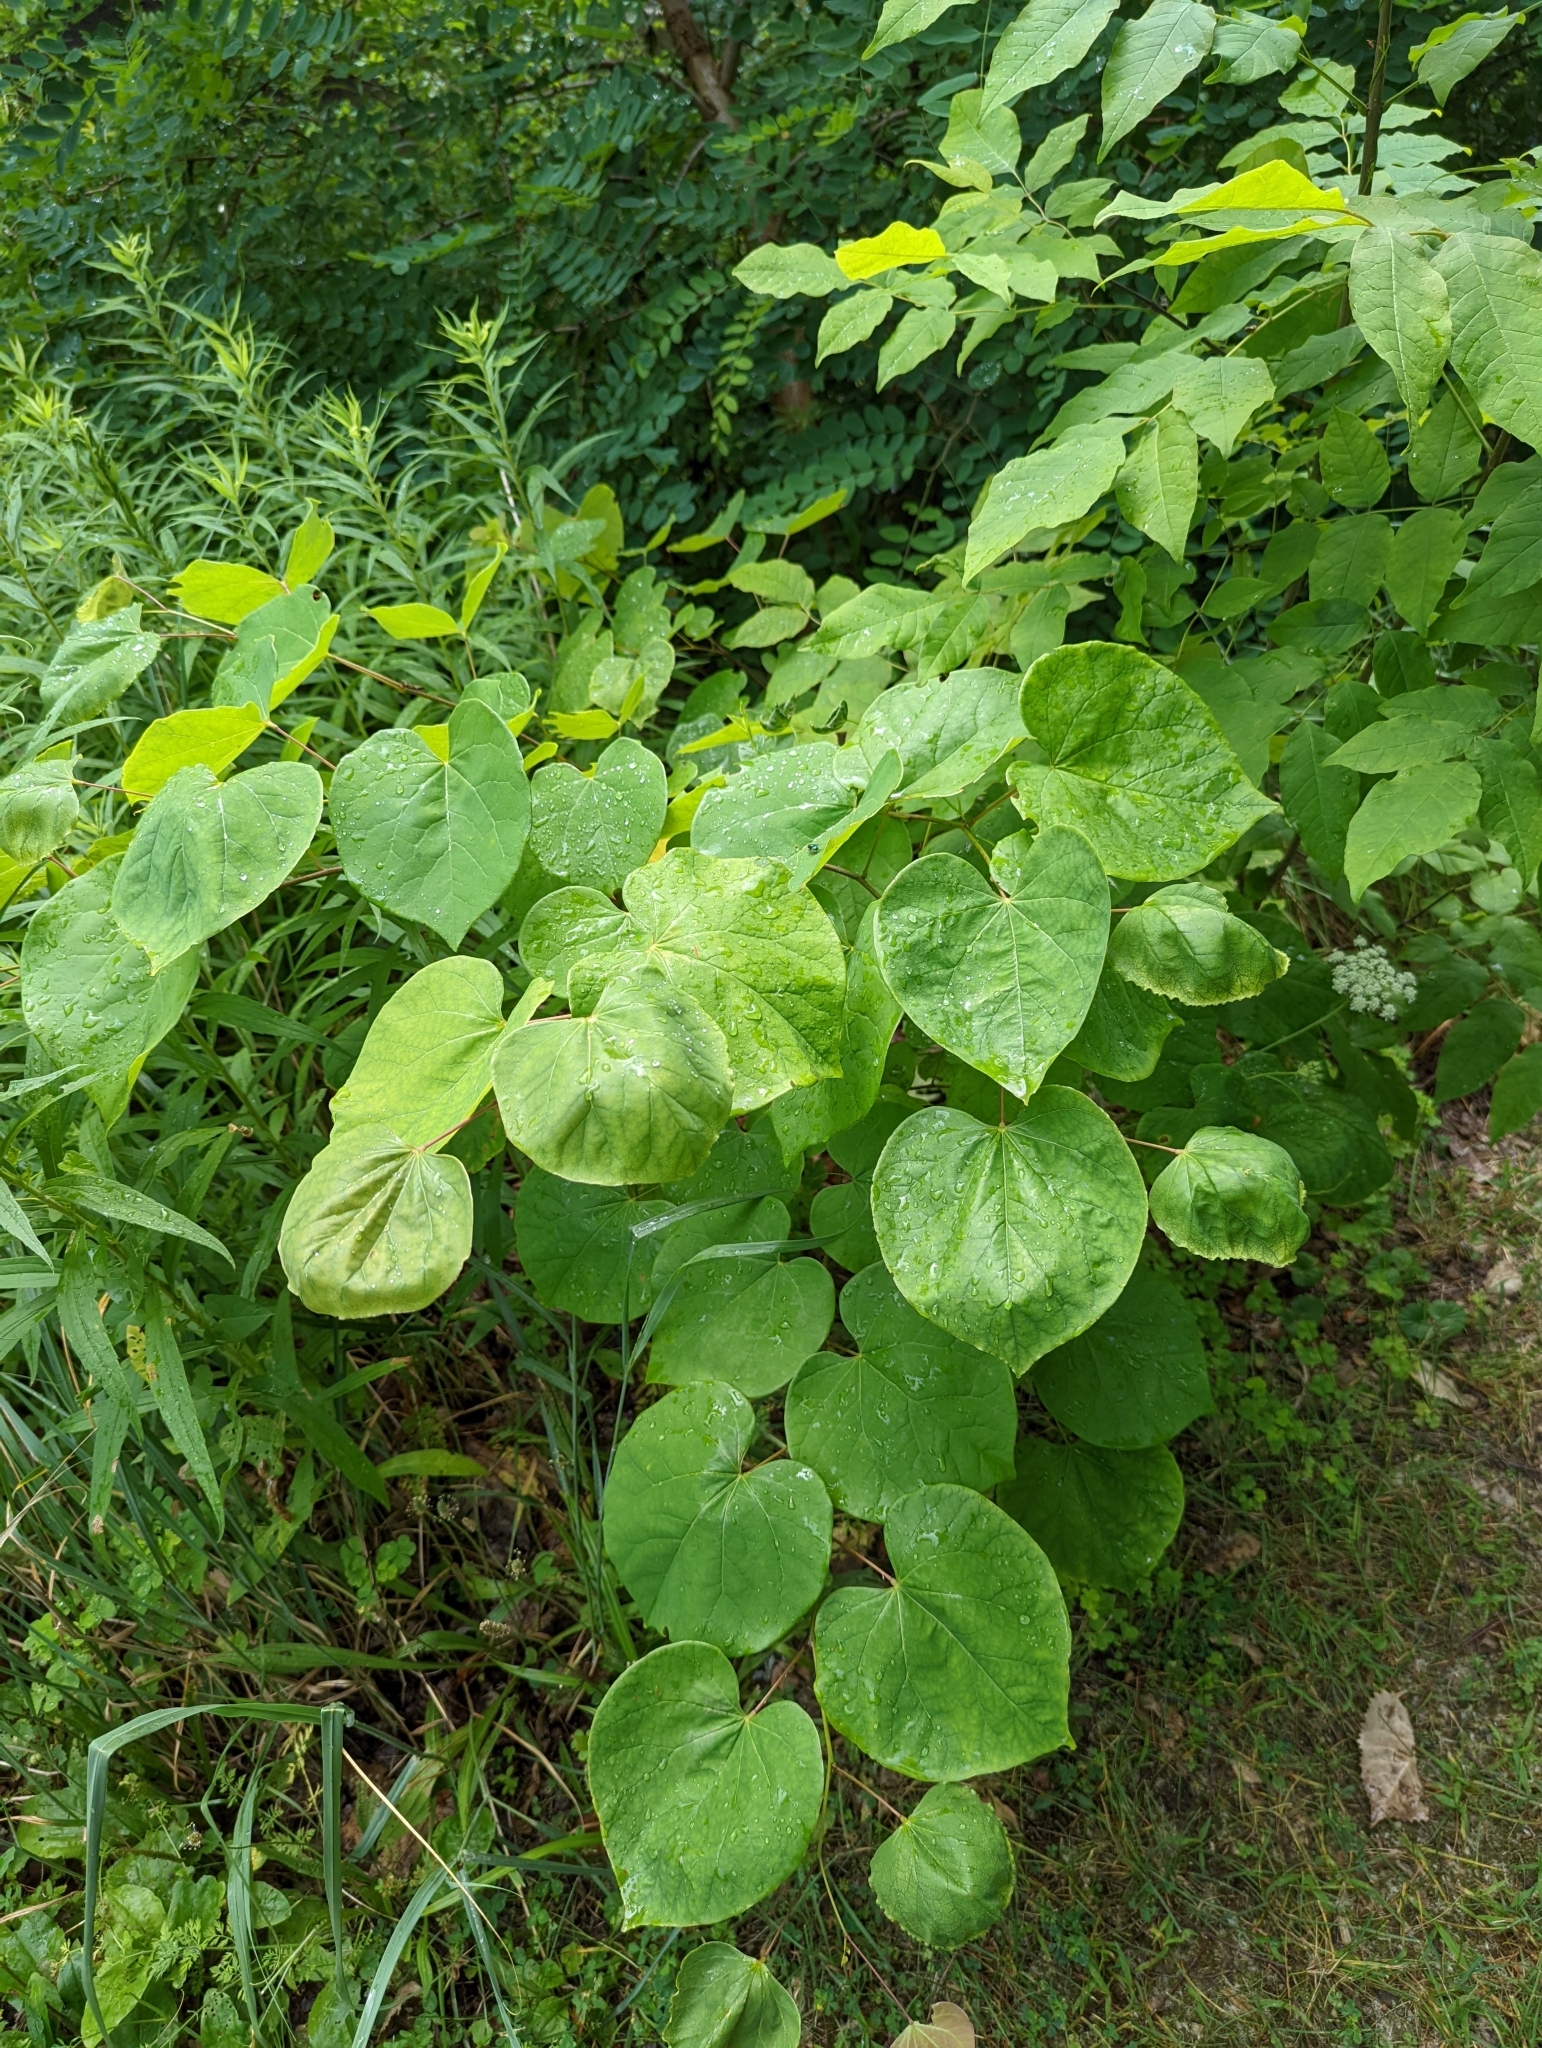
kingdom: Plantae
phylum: Tracheophyta
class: Magnoliopsida
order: Fabales
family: Fabaceae
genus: Cercis
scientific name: Cercis canadensis
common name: Eastern redbud
